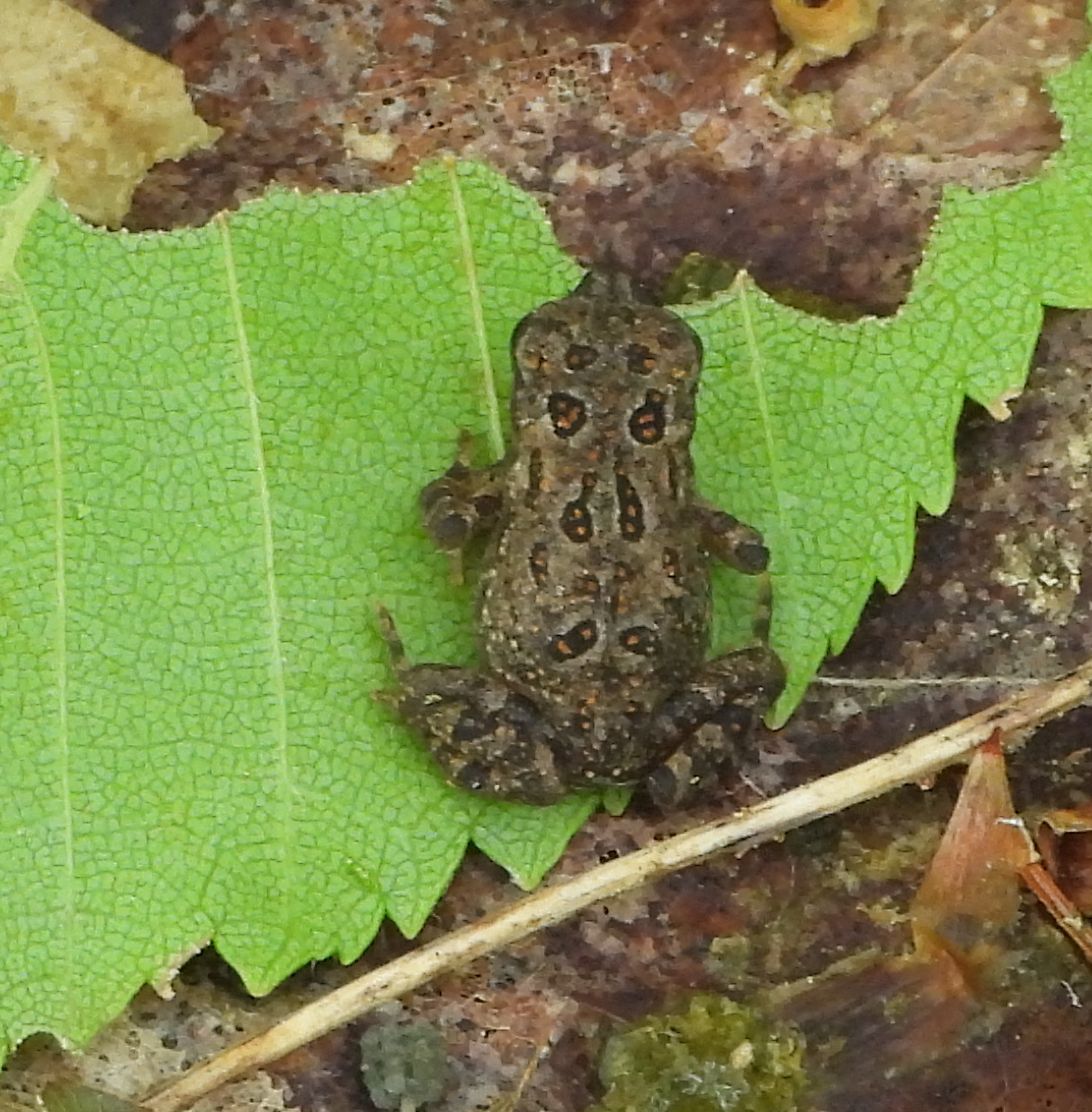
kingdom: Animalia
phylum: Chordata
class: Amphibia
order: Anura
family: Bufonidae
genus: Anaxyrus
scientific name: Anaxyrus americanus
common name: American toad
